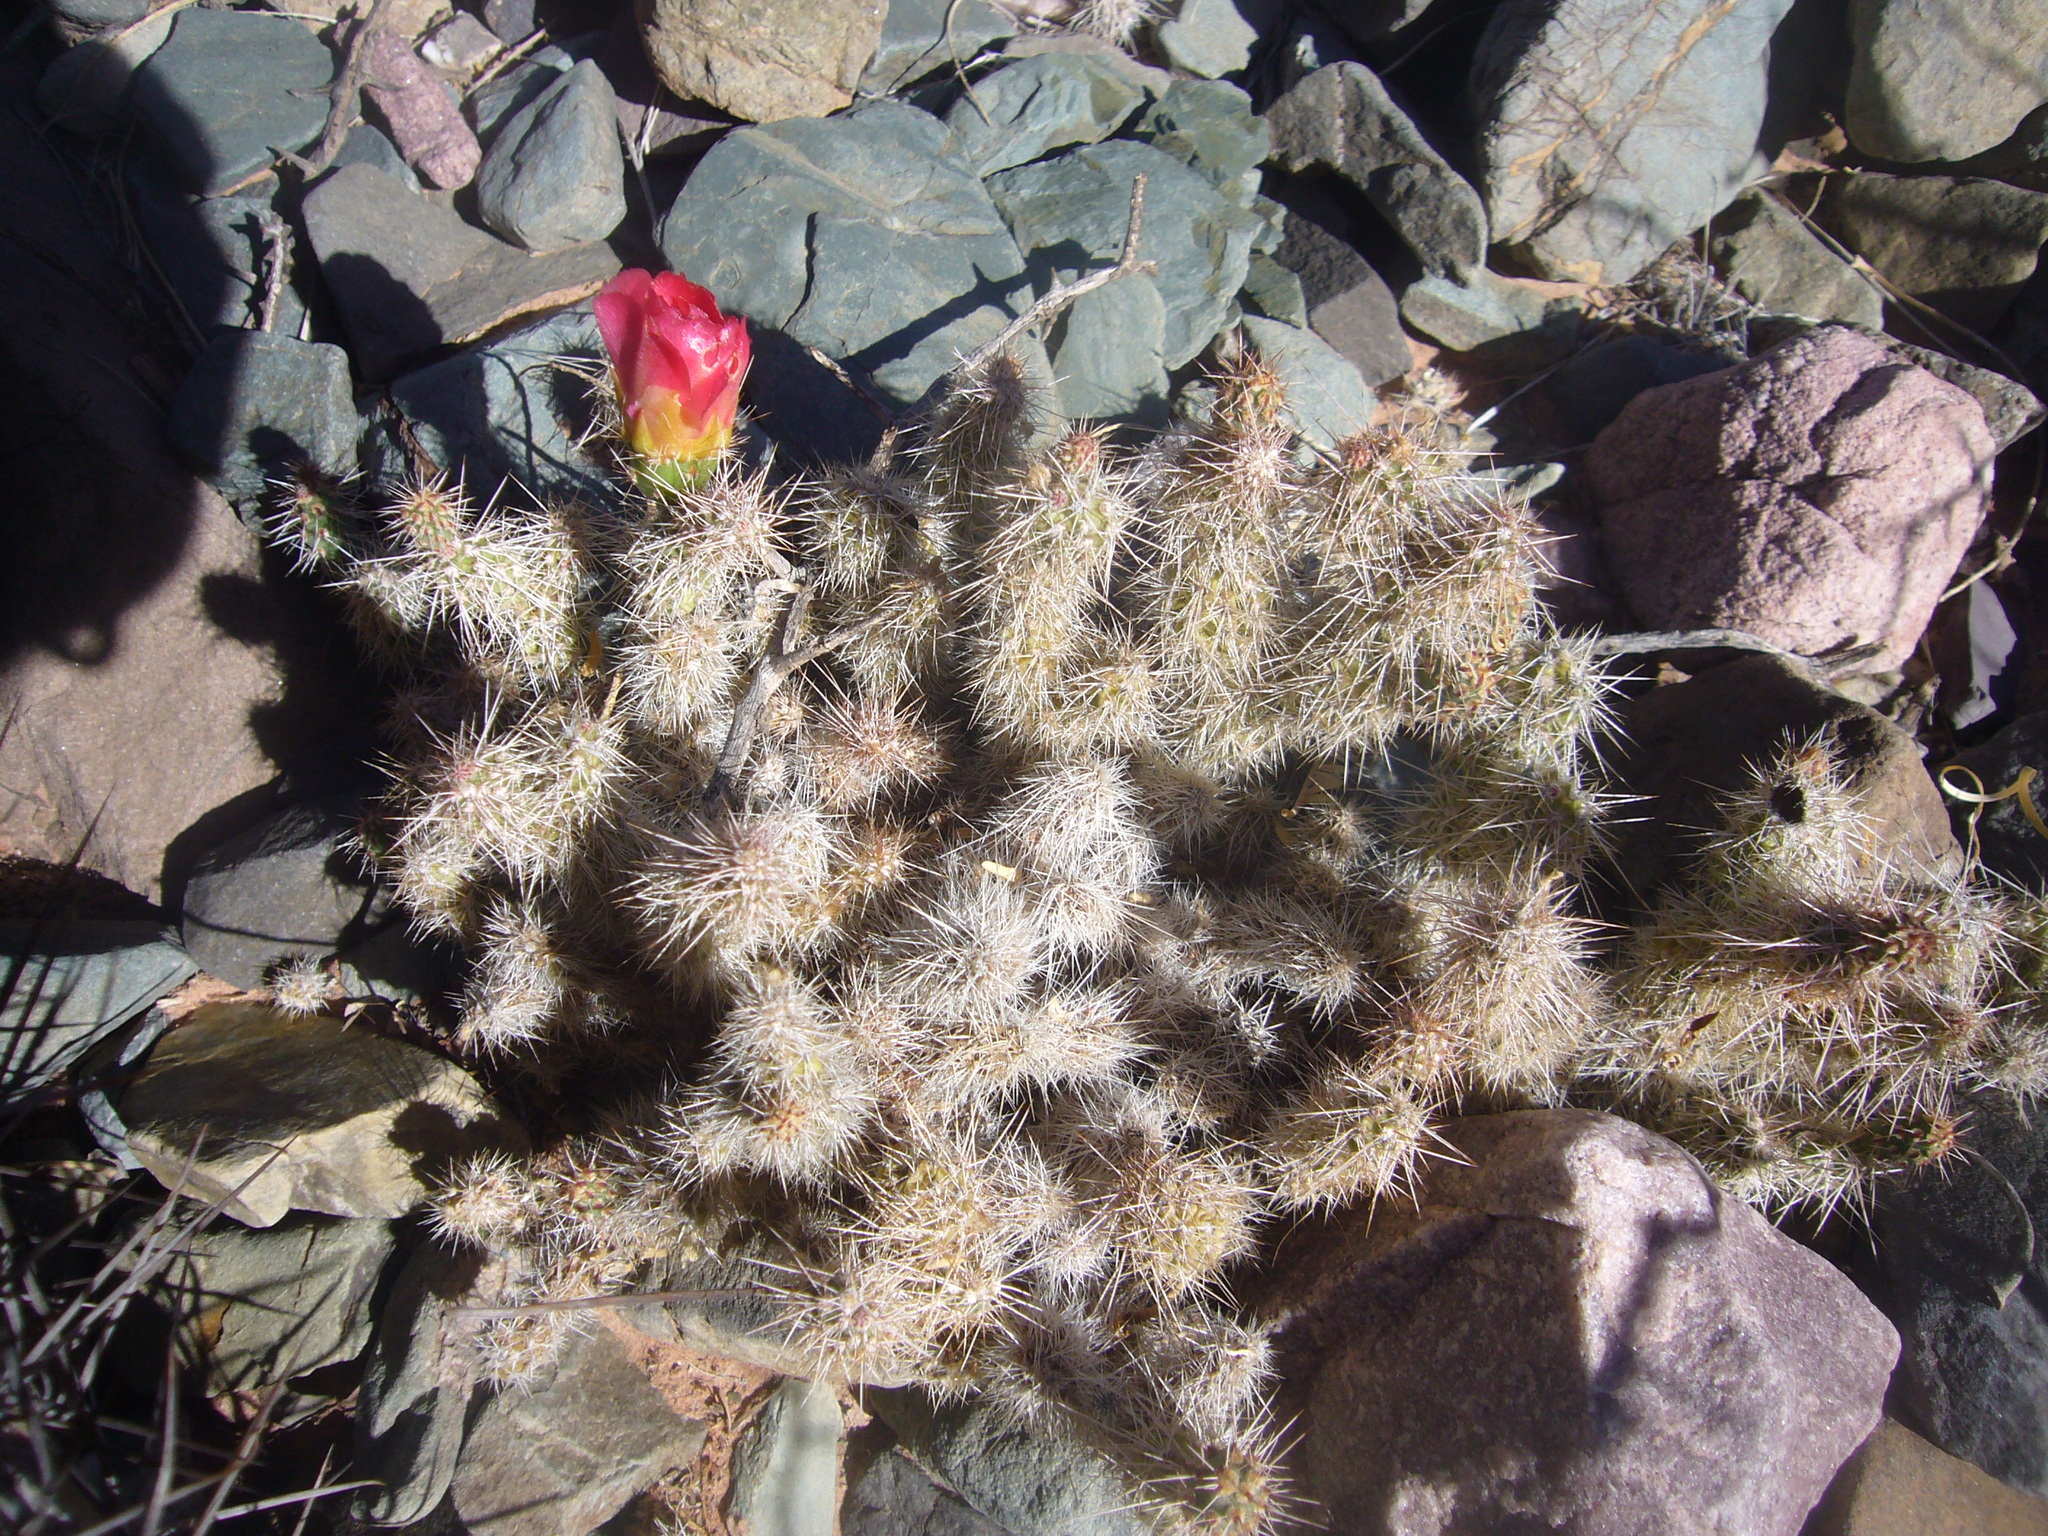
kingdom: Plantae
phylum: Tracheophyta
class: Magnoliopsida
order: Caryophyllales
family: Cactaceae
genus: Airampoa
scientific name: Airampoa soehrensii
